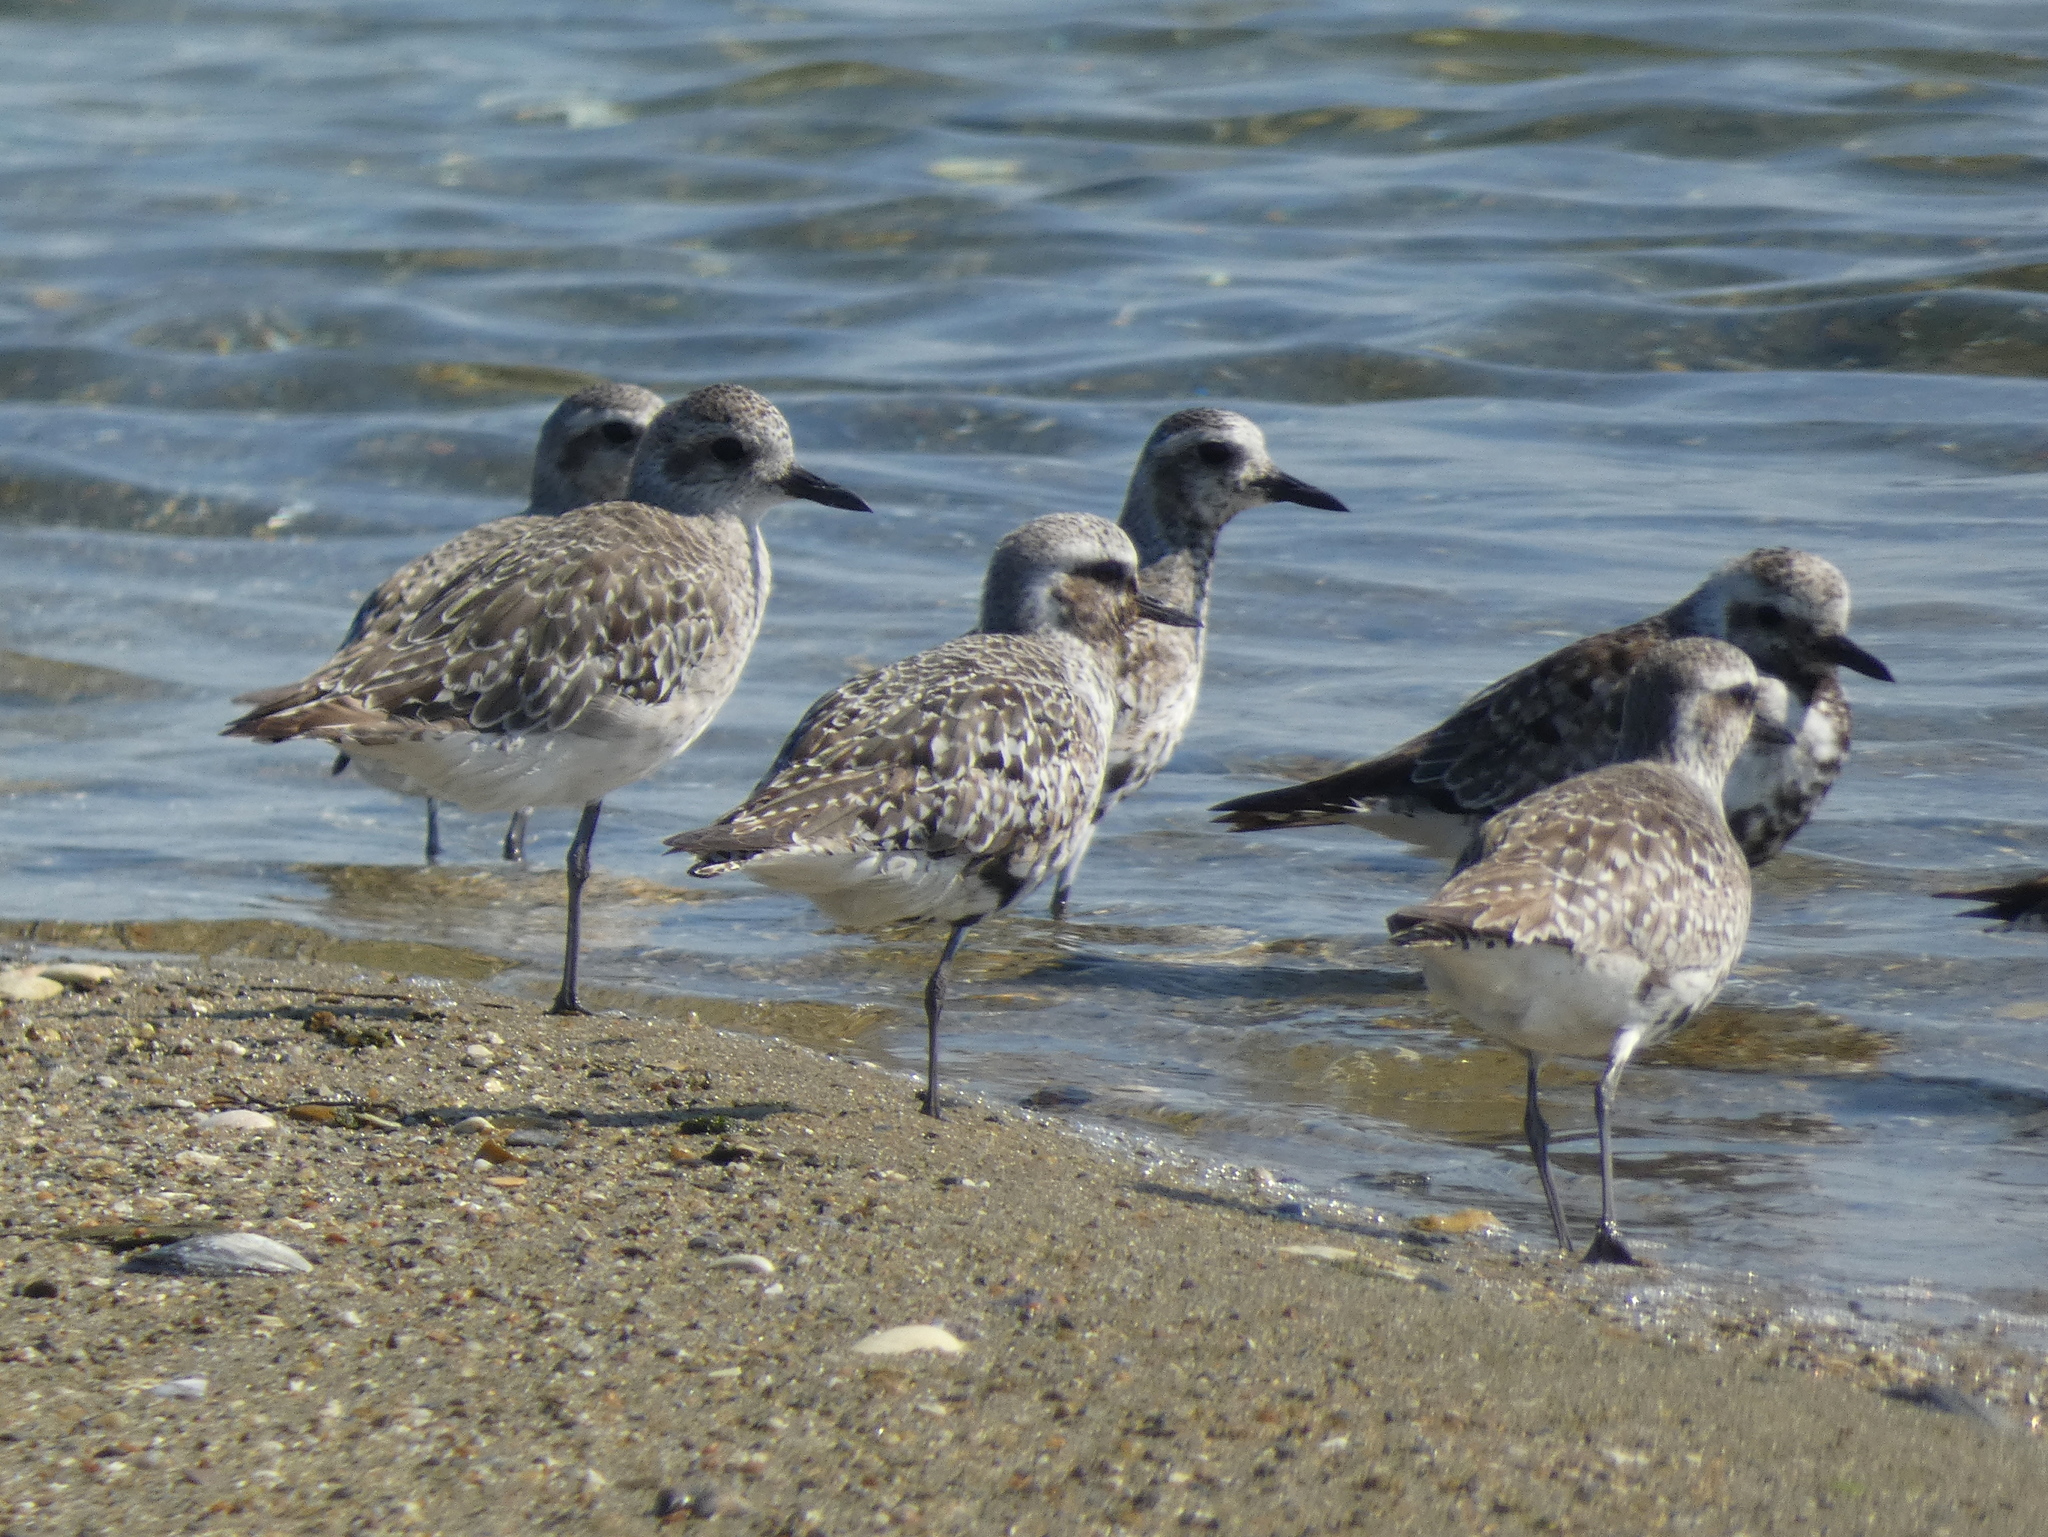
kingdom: Animalia
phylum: Chordata
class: Aves
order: Charadriiformes
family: Charadriidae
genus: Pluvialis
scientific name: Pluvialis squatarola
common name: Grey plover
